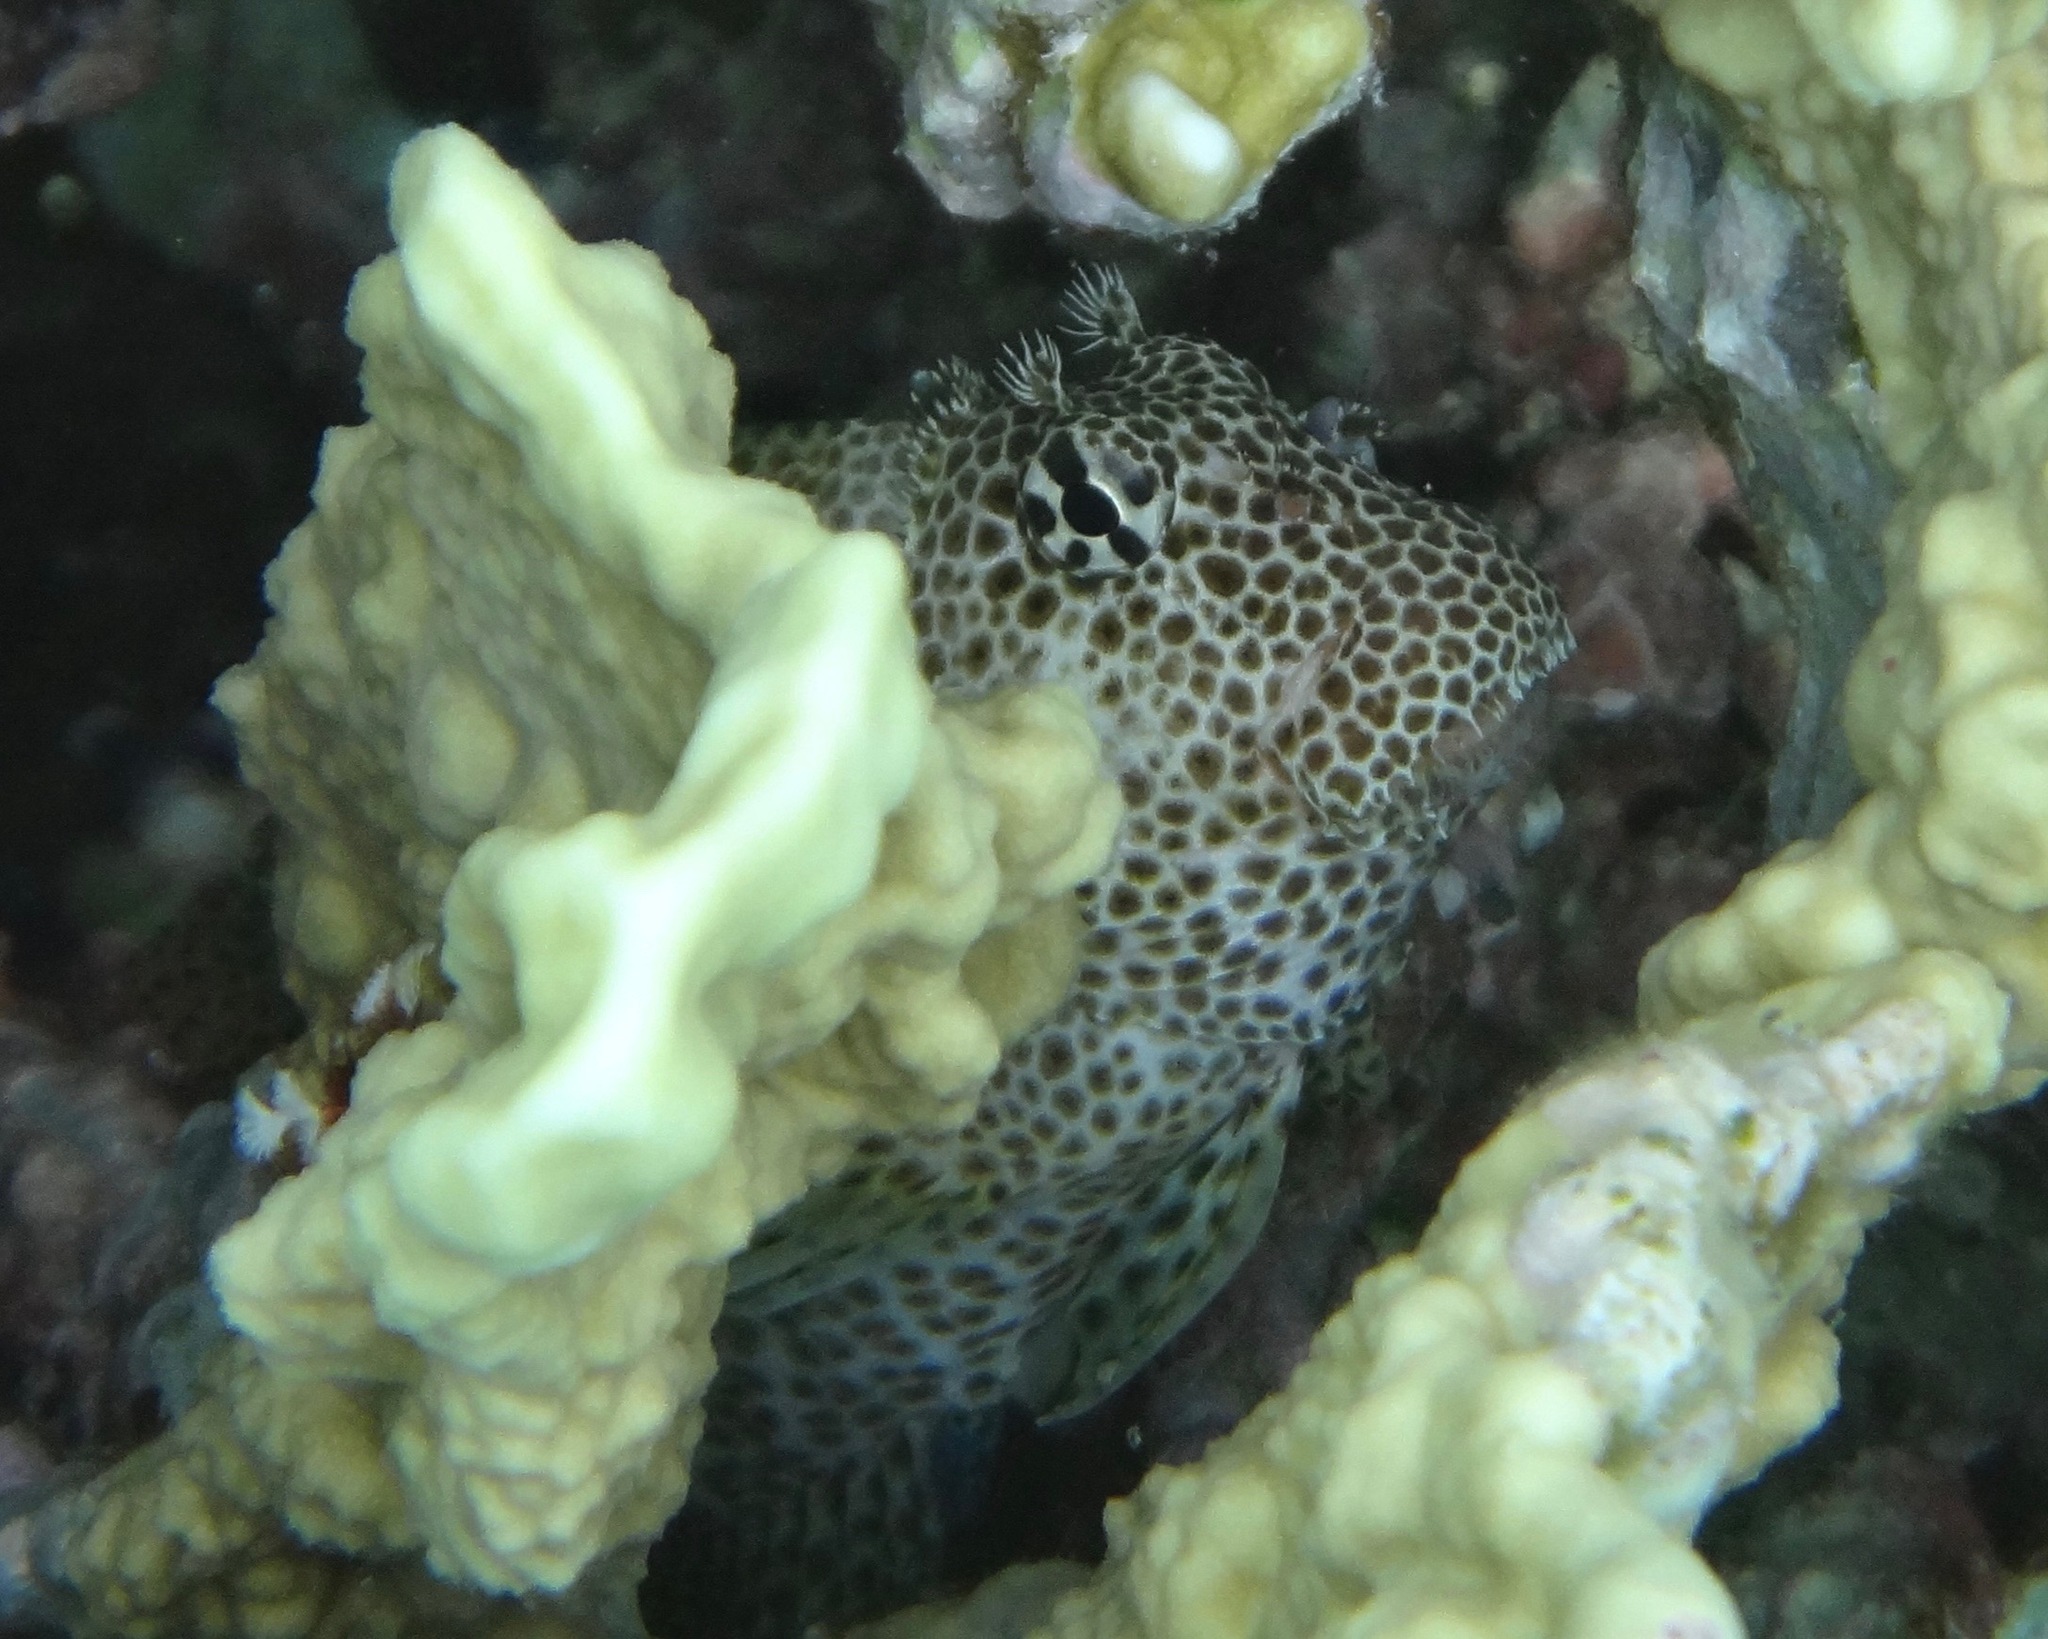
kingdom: Animalia
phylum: Chordata
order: Perciformes
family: Blenniidae
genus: Exallias
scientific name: Exallias brevis
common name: Leopard blenny
